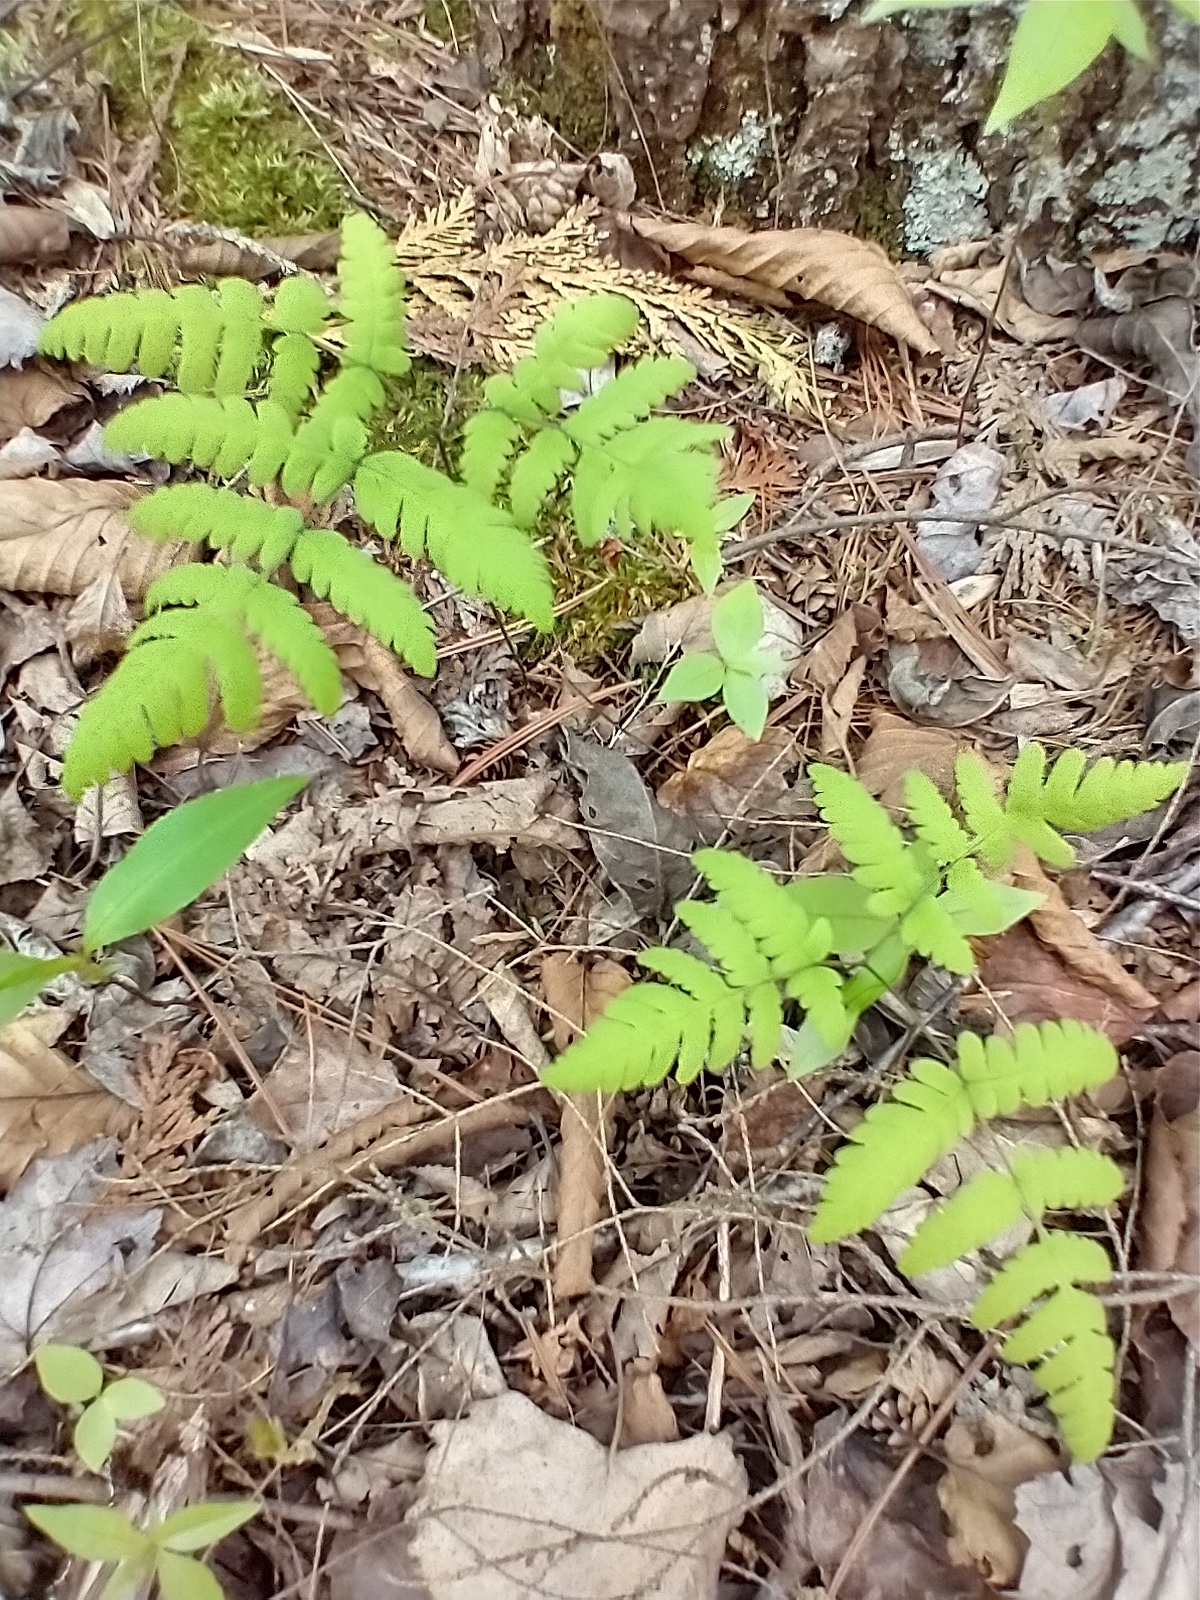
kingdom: Plantae
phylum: Tracheophyta
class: Polypodiopsida
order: Polypodiales
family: Cystopteridaceae
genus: Gymnocarpium
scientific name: Gymnocarpium dryopteris
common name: Oak fern
